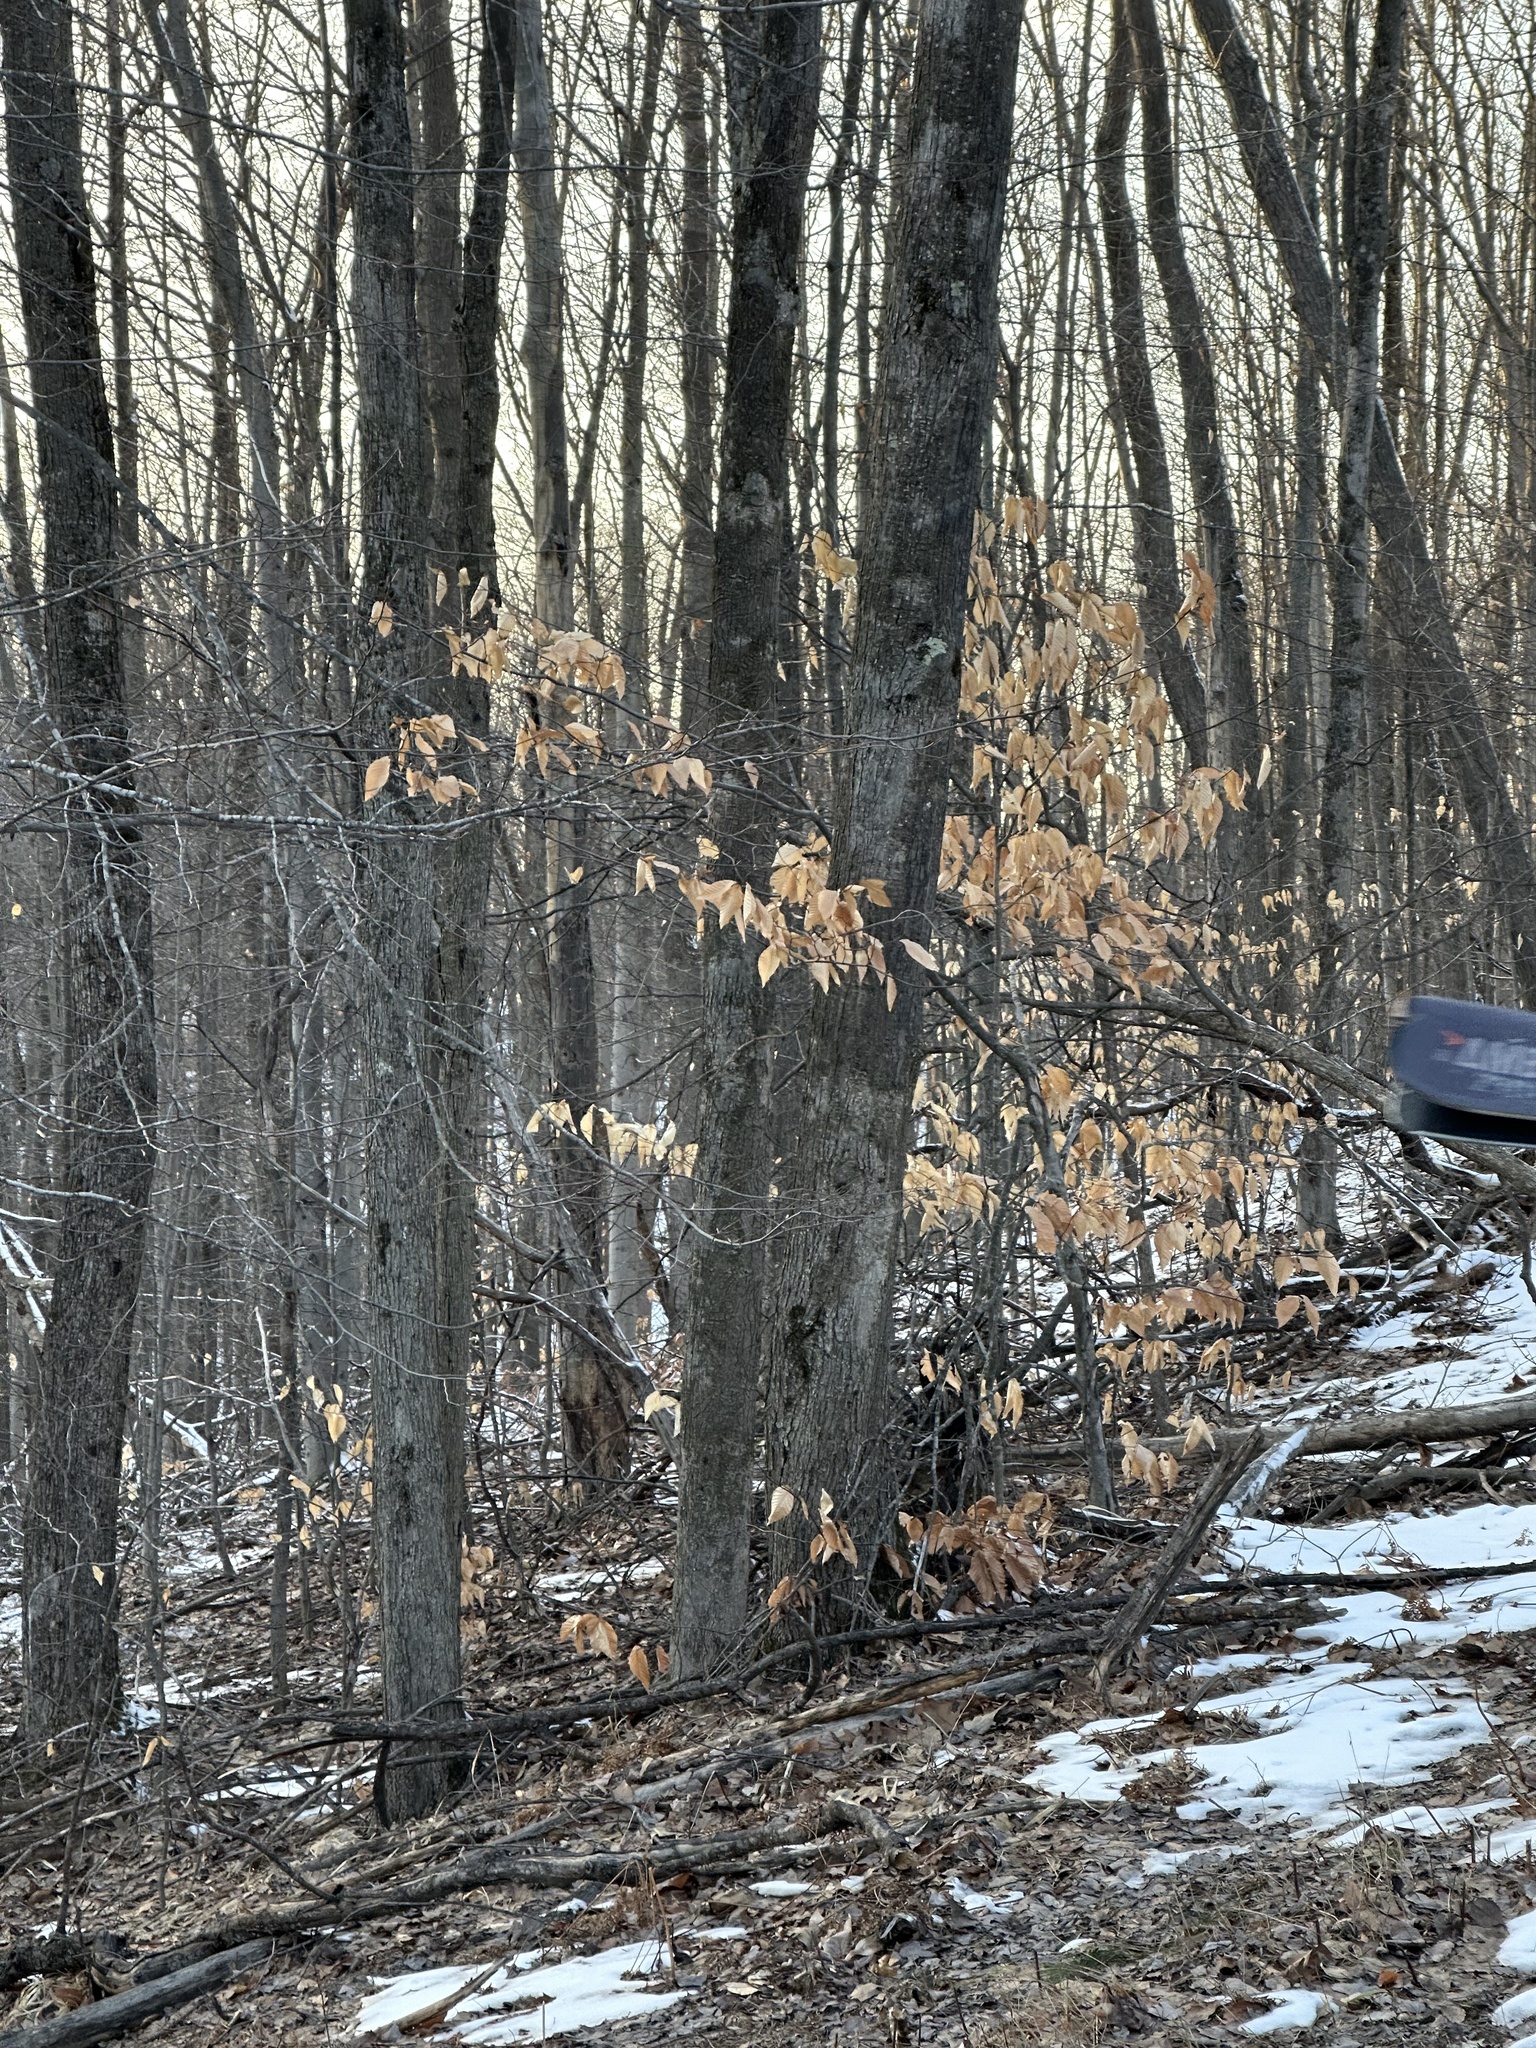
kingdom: Plantae
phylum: Tracheophyta
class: Magnoliopsida
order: Fagales
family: Fagaceae
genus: Fagus
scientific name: Fagus grandifolia
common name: American beech
